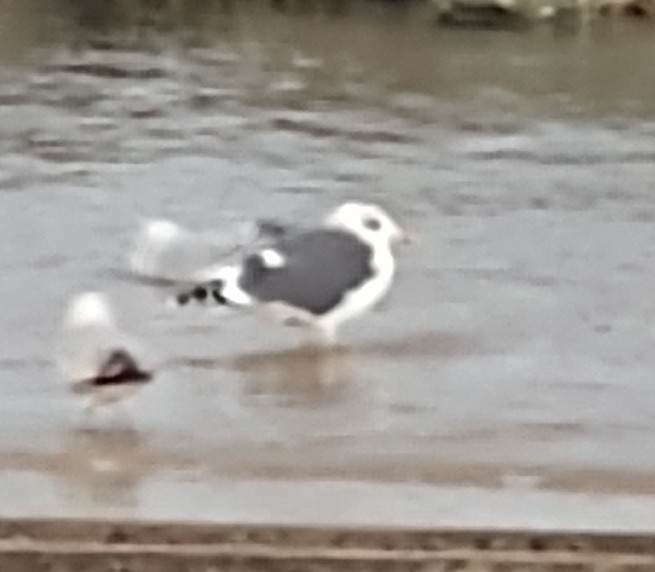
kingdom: Animalia
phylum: Chordata
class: Aves
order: Charadriiformes
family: Laridae
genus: Larus
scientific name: Larus fuscus
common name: Lesser black-backed gull
